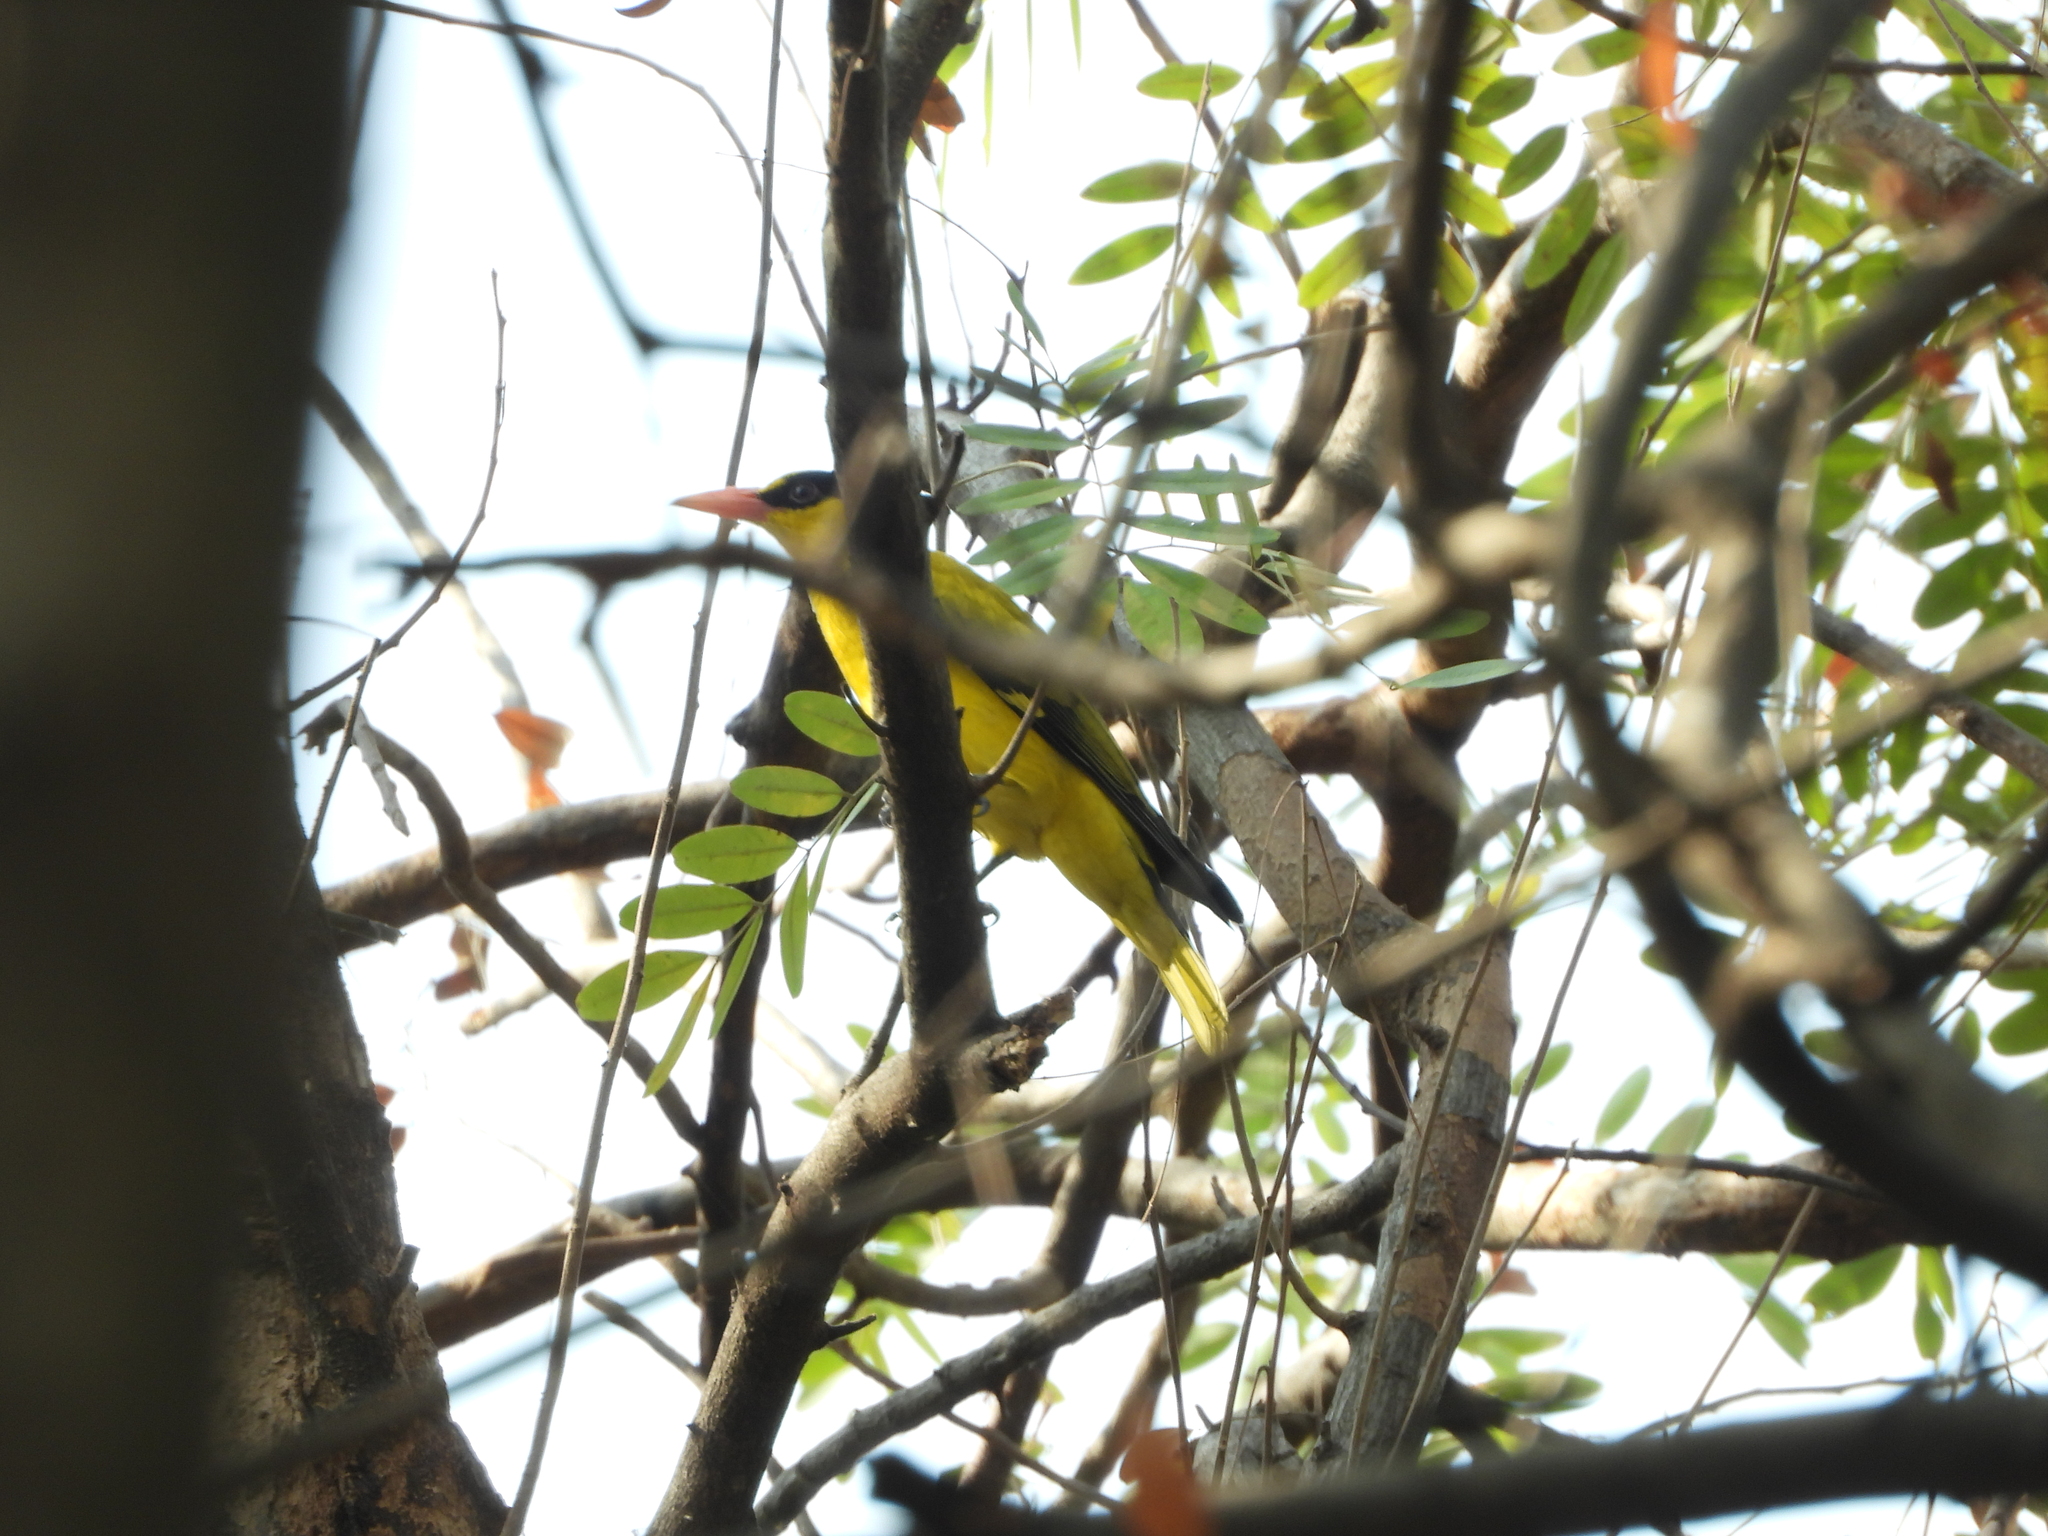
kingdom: Animalia
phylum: Chordata
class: Aves
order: Passeriformes
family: Oriolidae
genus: Oriolus
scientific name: Oriolus chinensis
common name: Black-naped oriole
